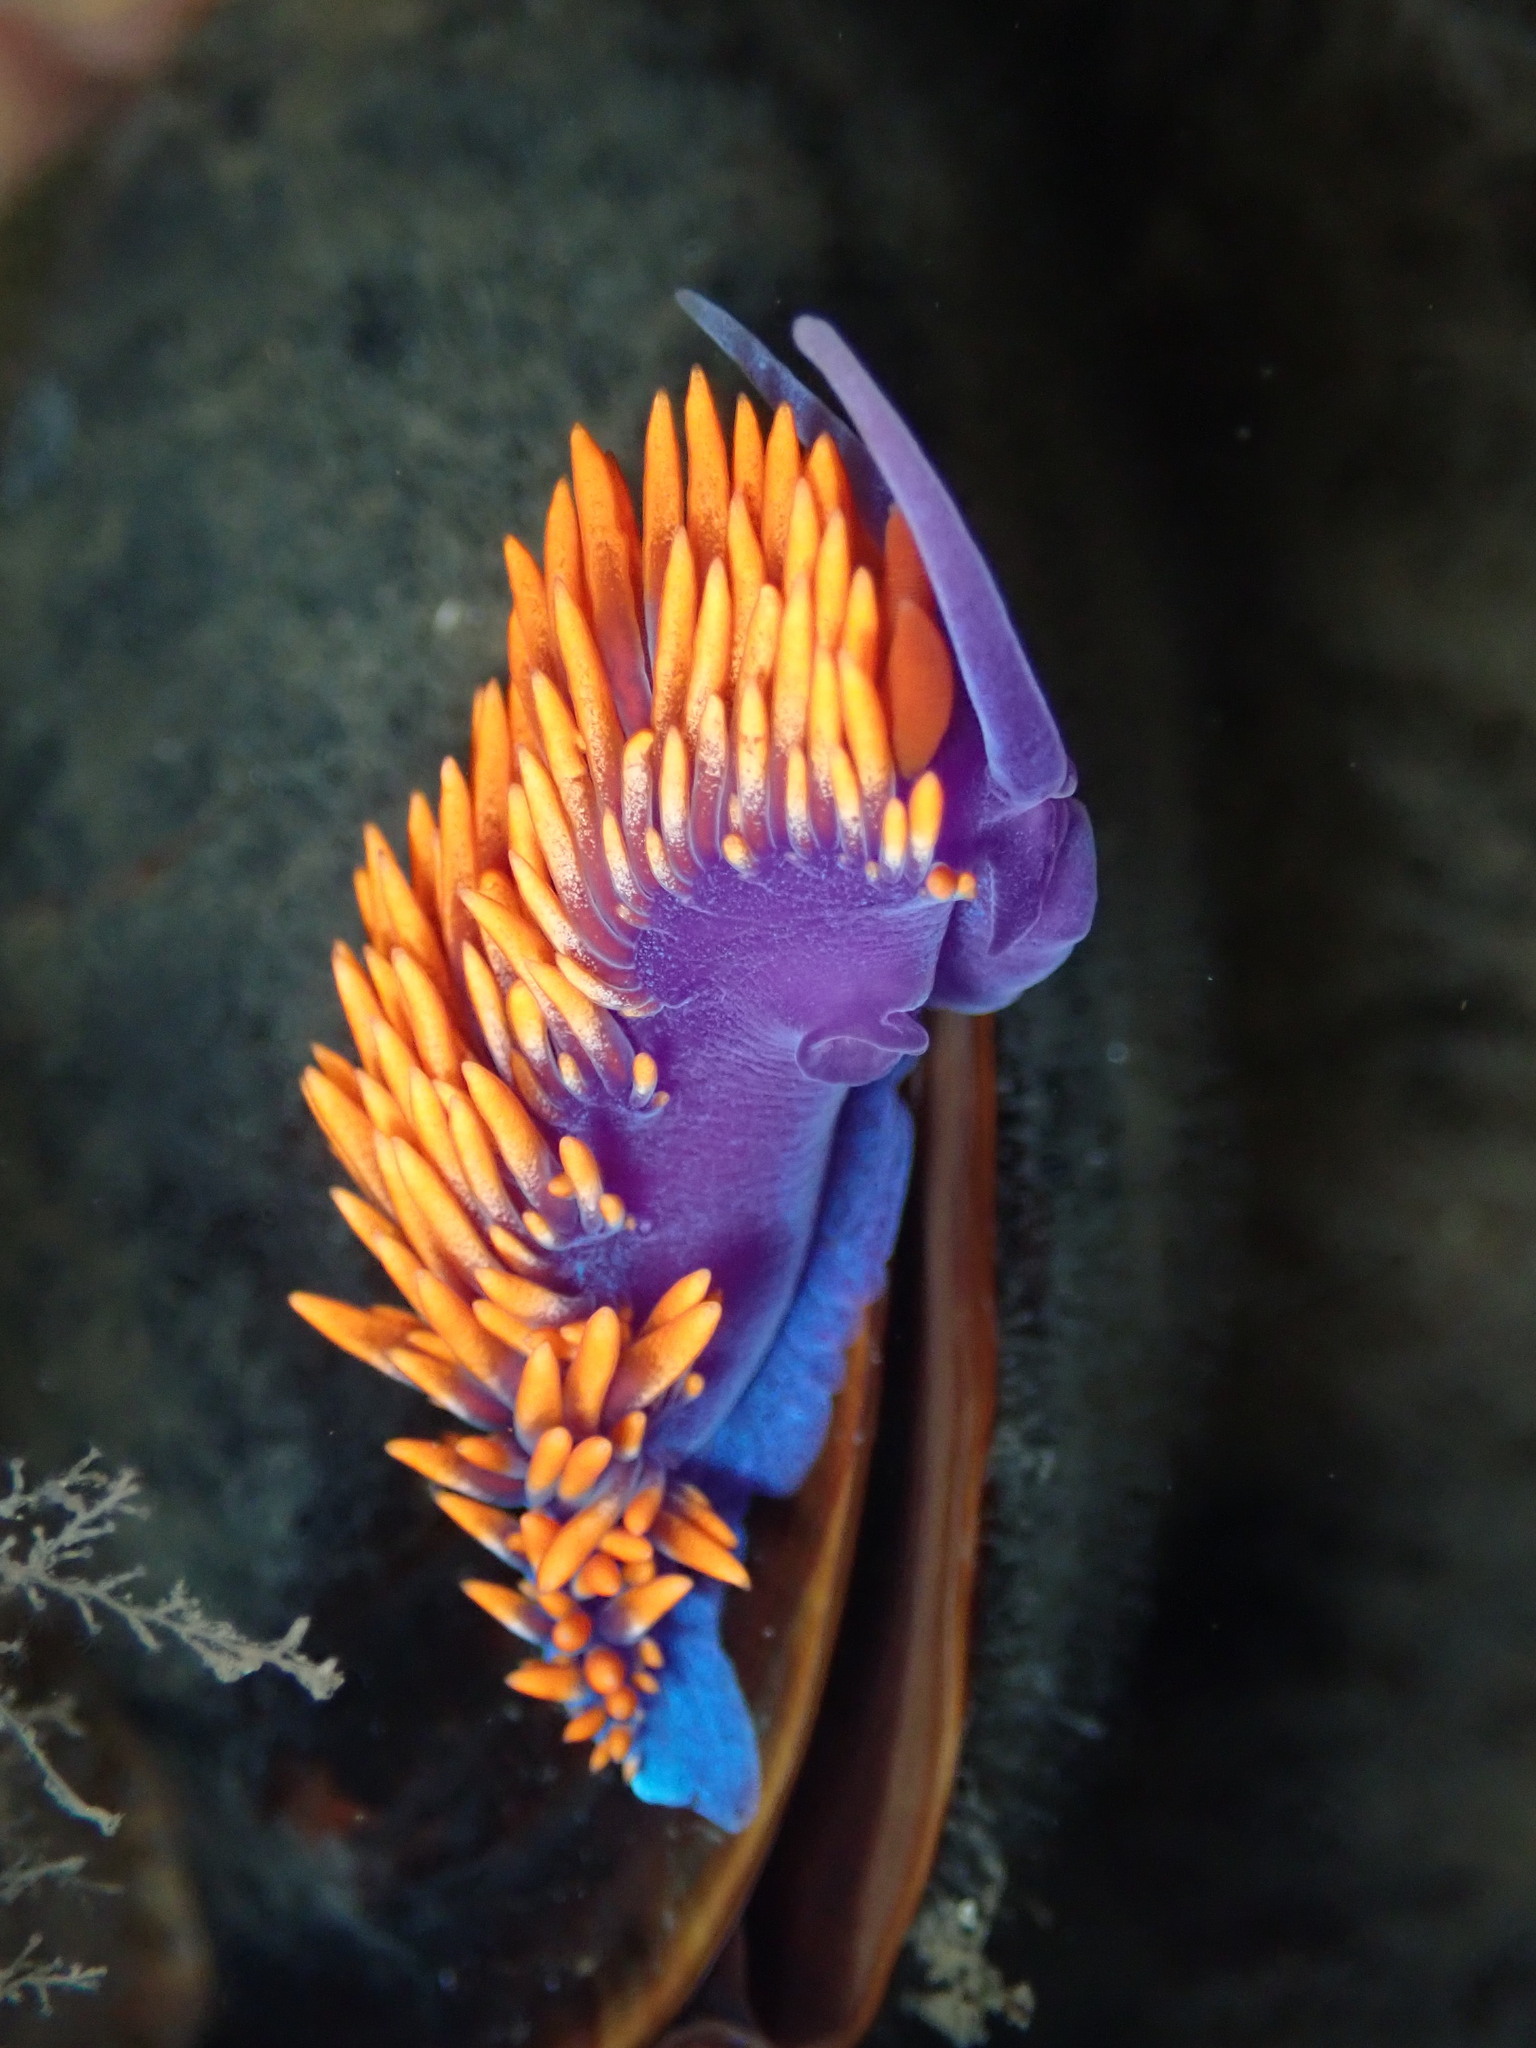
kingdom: Animalia
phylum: Mollusca
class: Gastropoda
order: Nudibranchia
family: Flabellinopsidae
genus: Flabellinopsis
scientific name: Flabellinopsis iodinea
